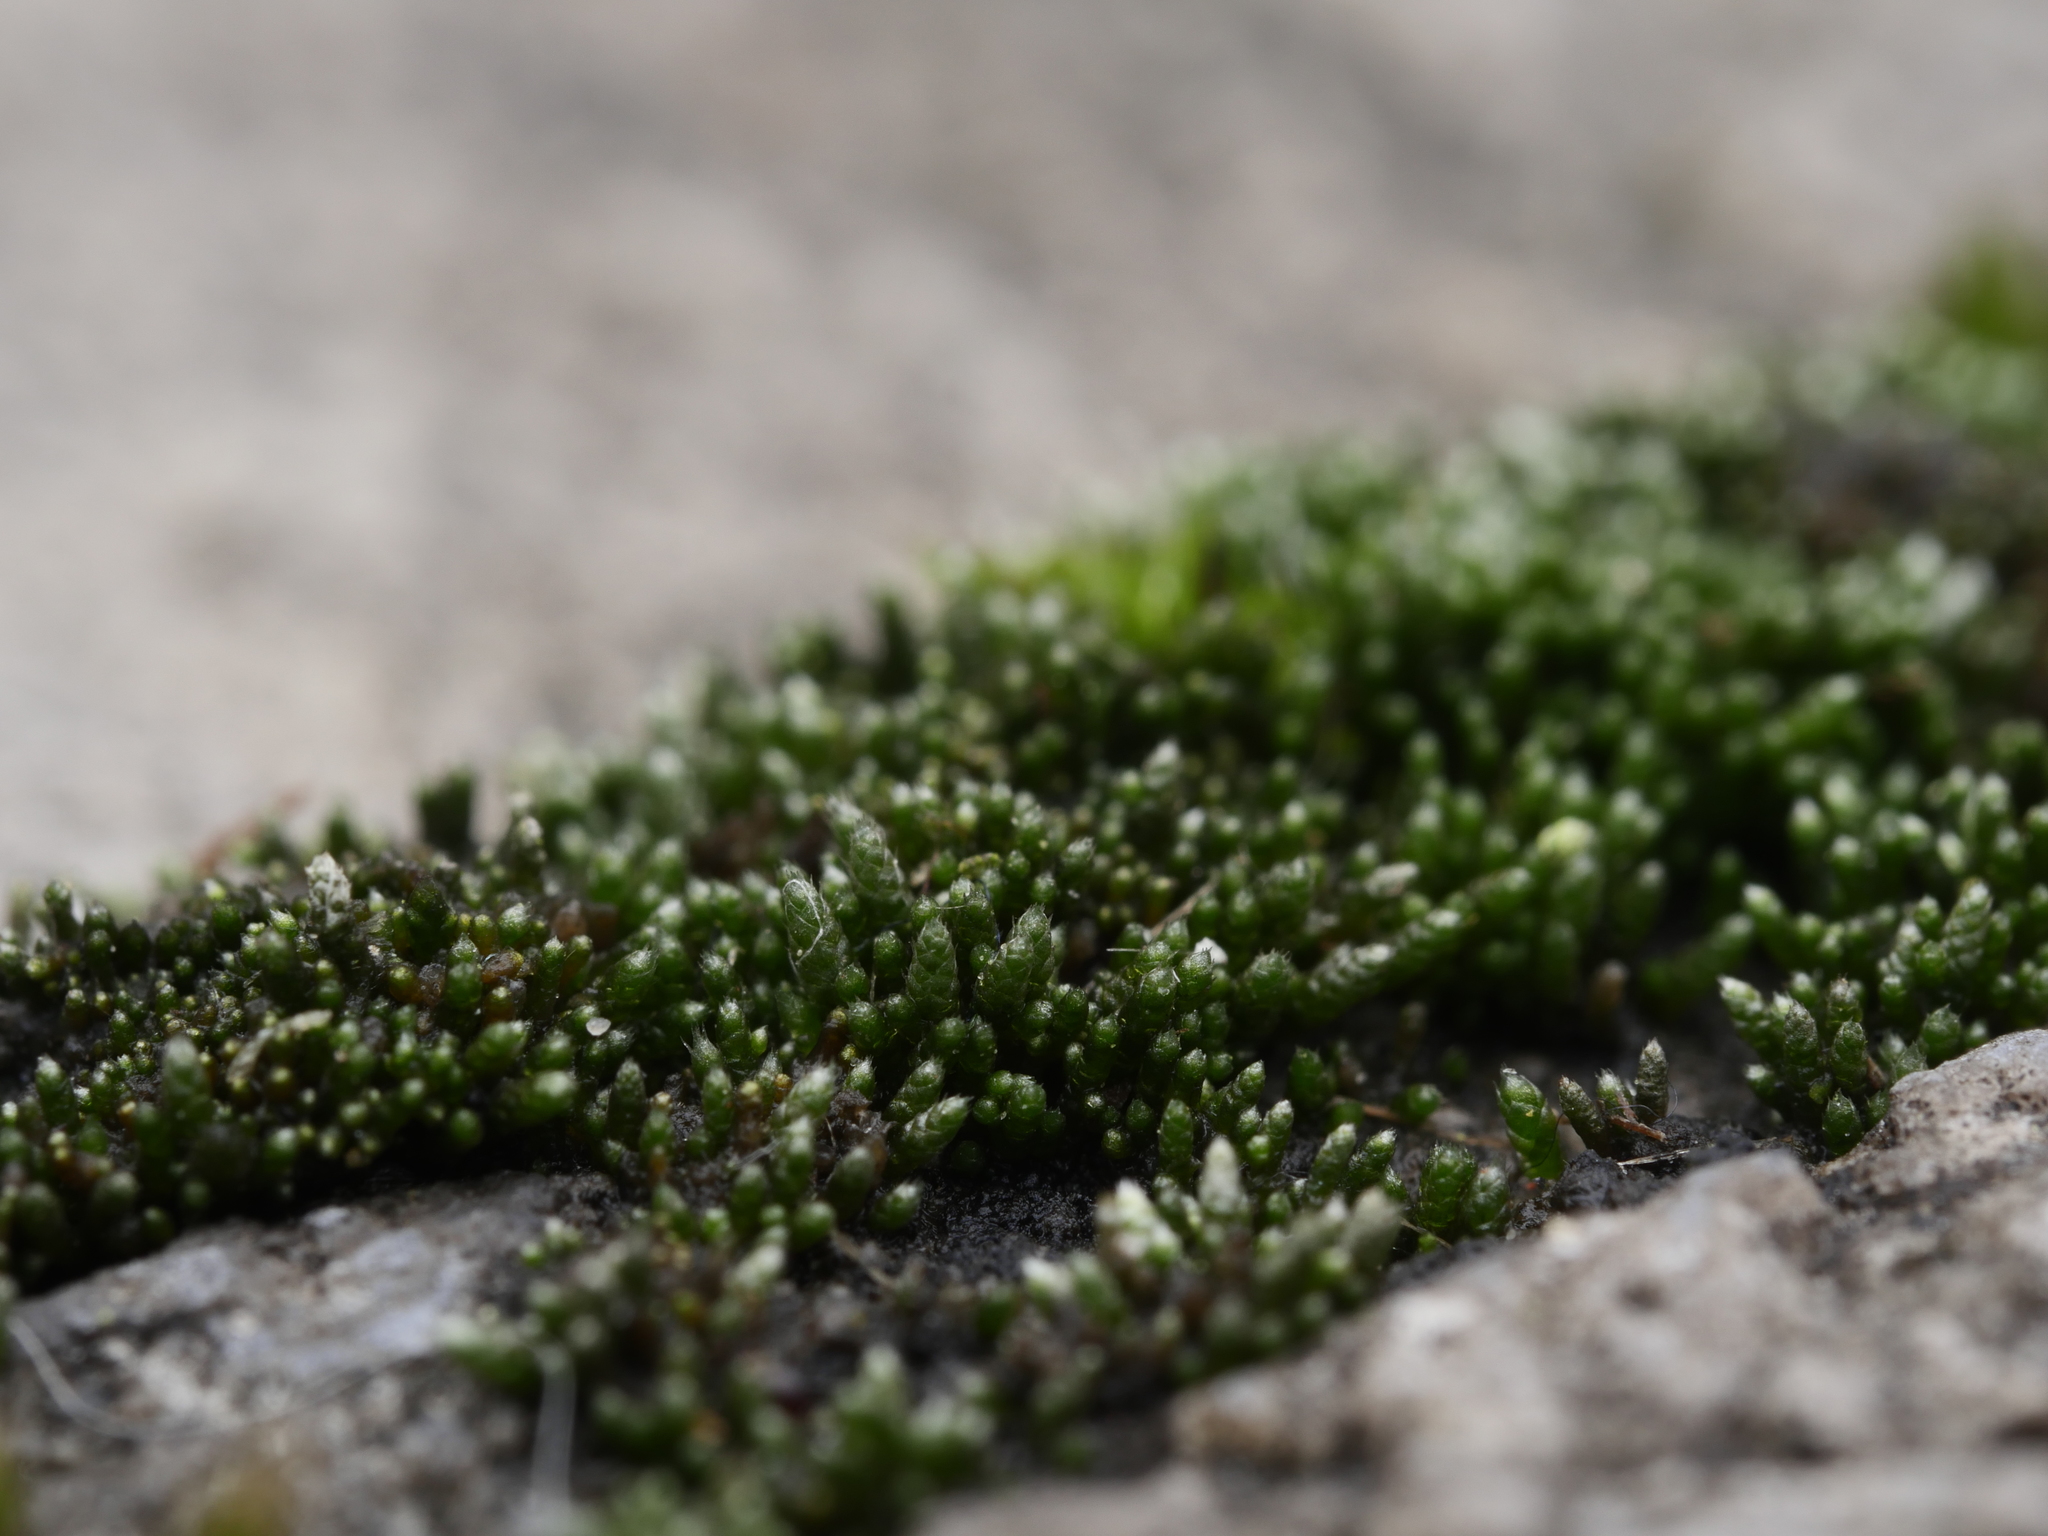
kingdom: Plantae
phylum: Bryophyta
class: Bryopsida
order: Bryales
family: Bryaceae
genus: Bryum
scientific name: Bryum argenteum
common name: Silver-moss
